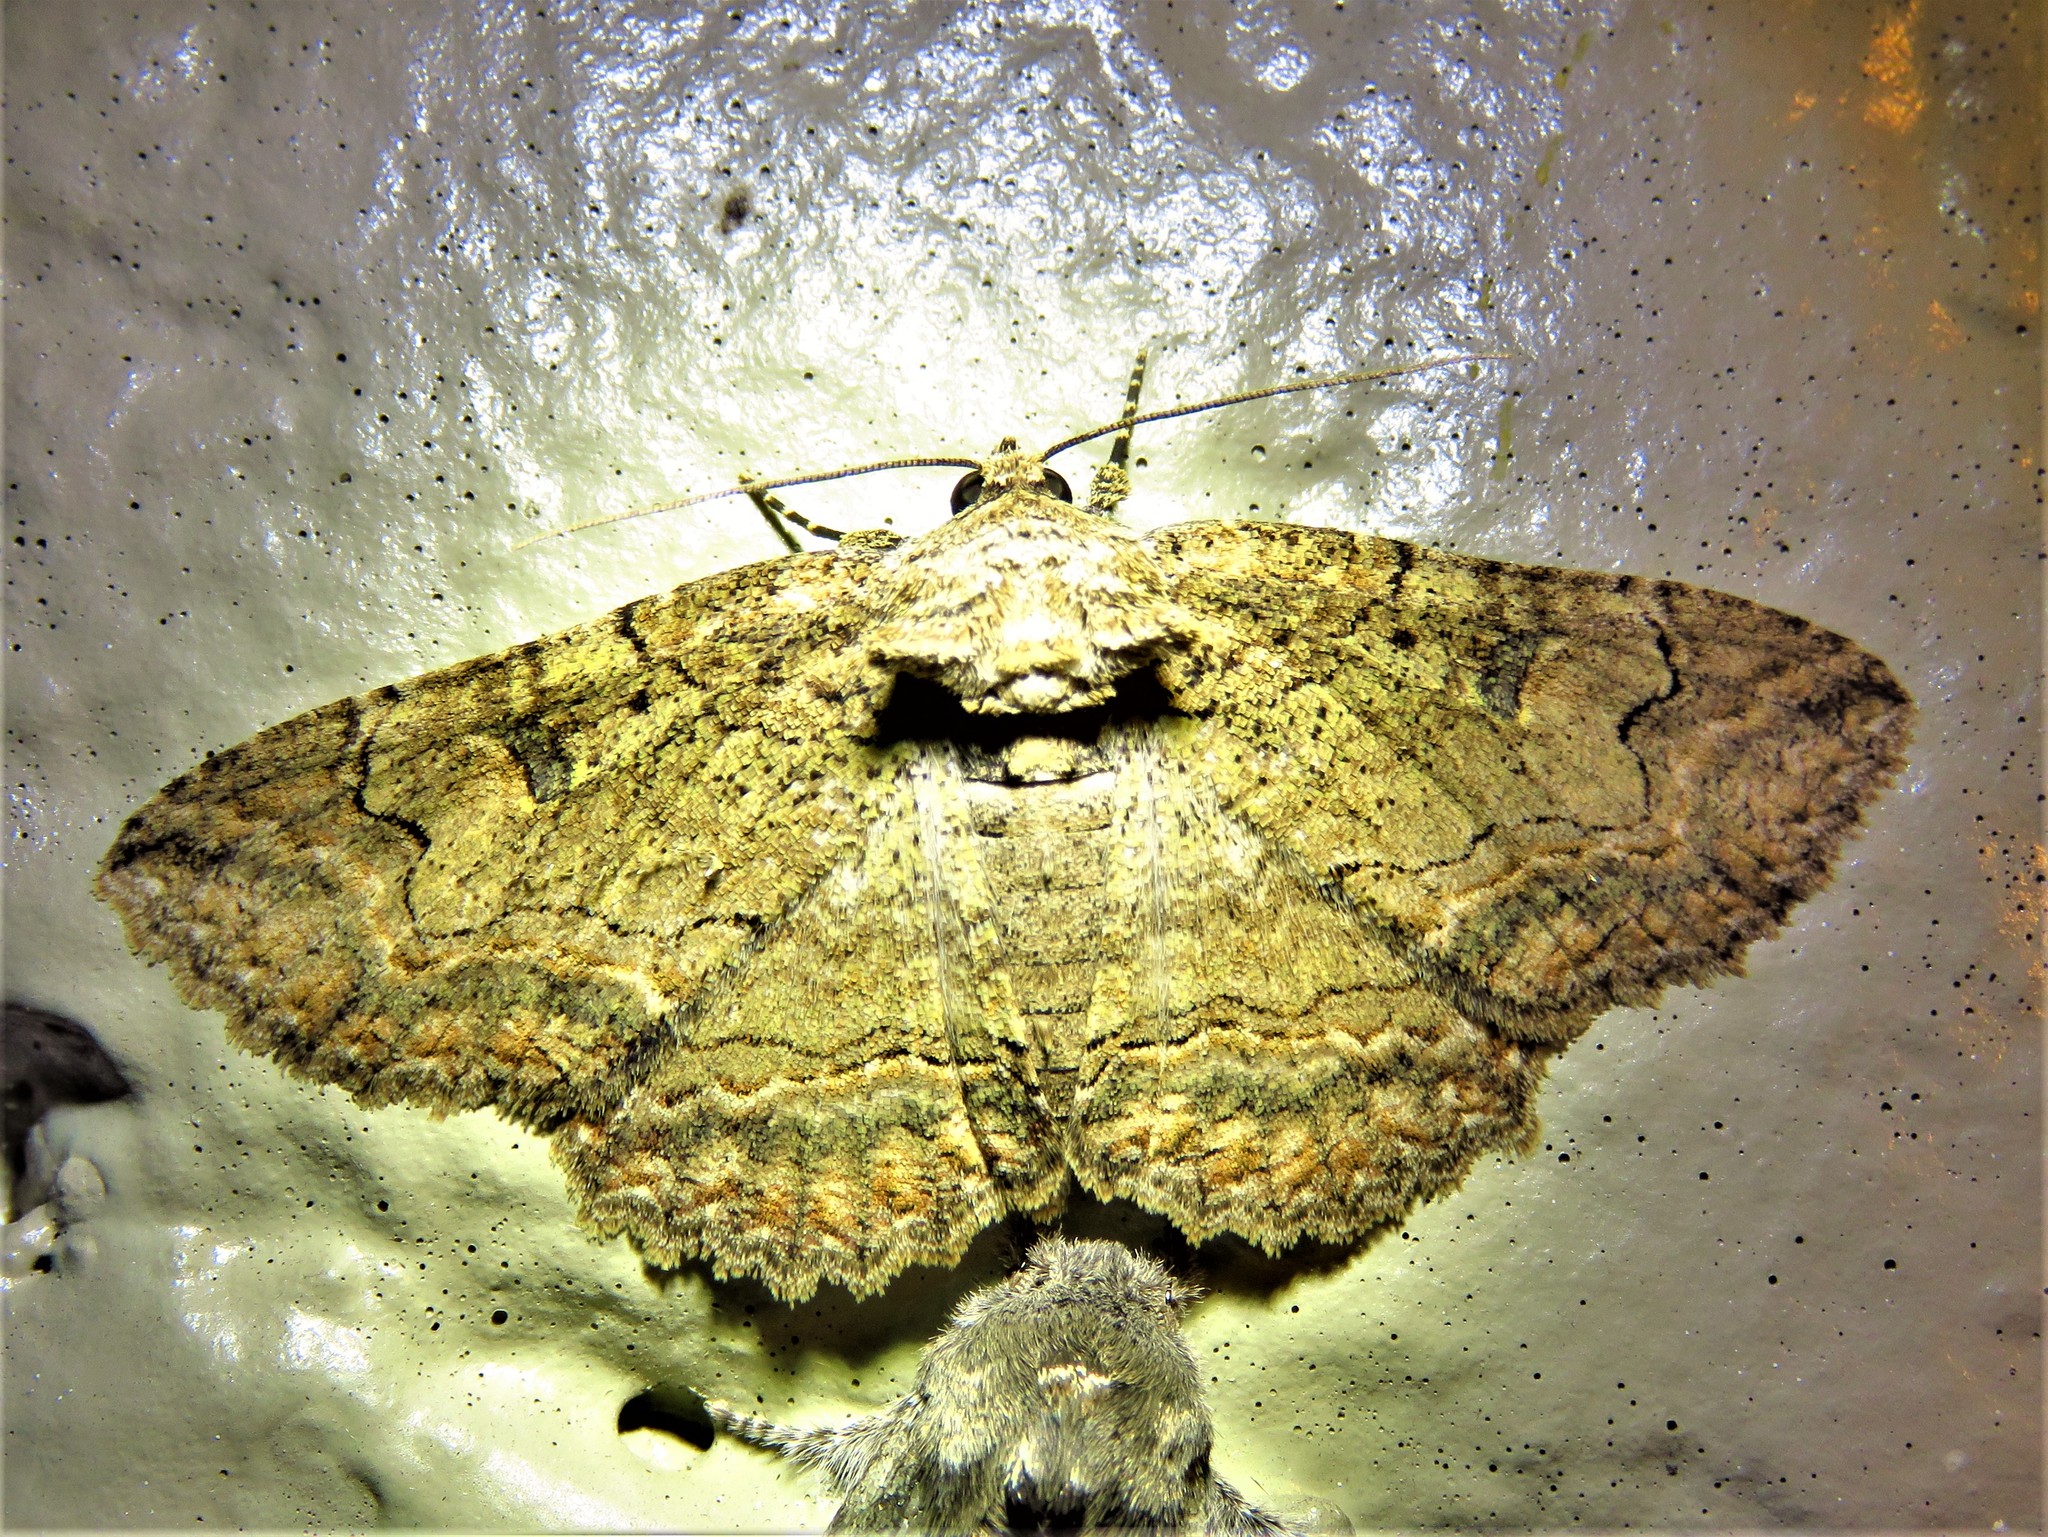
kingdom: Animalia
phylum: Arthropoda
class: Insecta
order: Lepidoptera
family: Erebidae
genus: Zale
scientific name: Zale lunata
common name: Lunate zale moth
